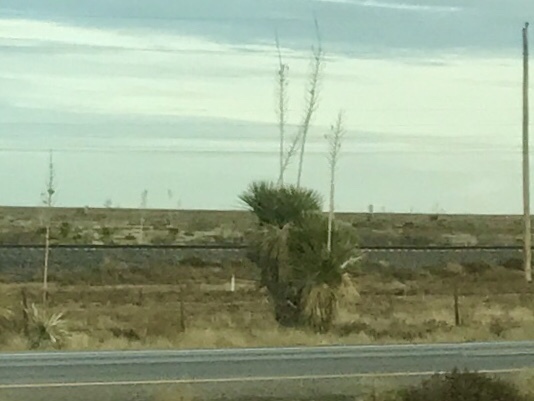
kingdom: Plantae
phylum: Tracheophyta
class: Liliopsida
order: Asparagales
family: Asparagaceae
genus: Yucca
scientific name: Yucca elata
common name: Palmella
